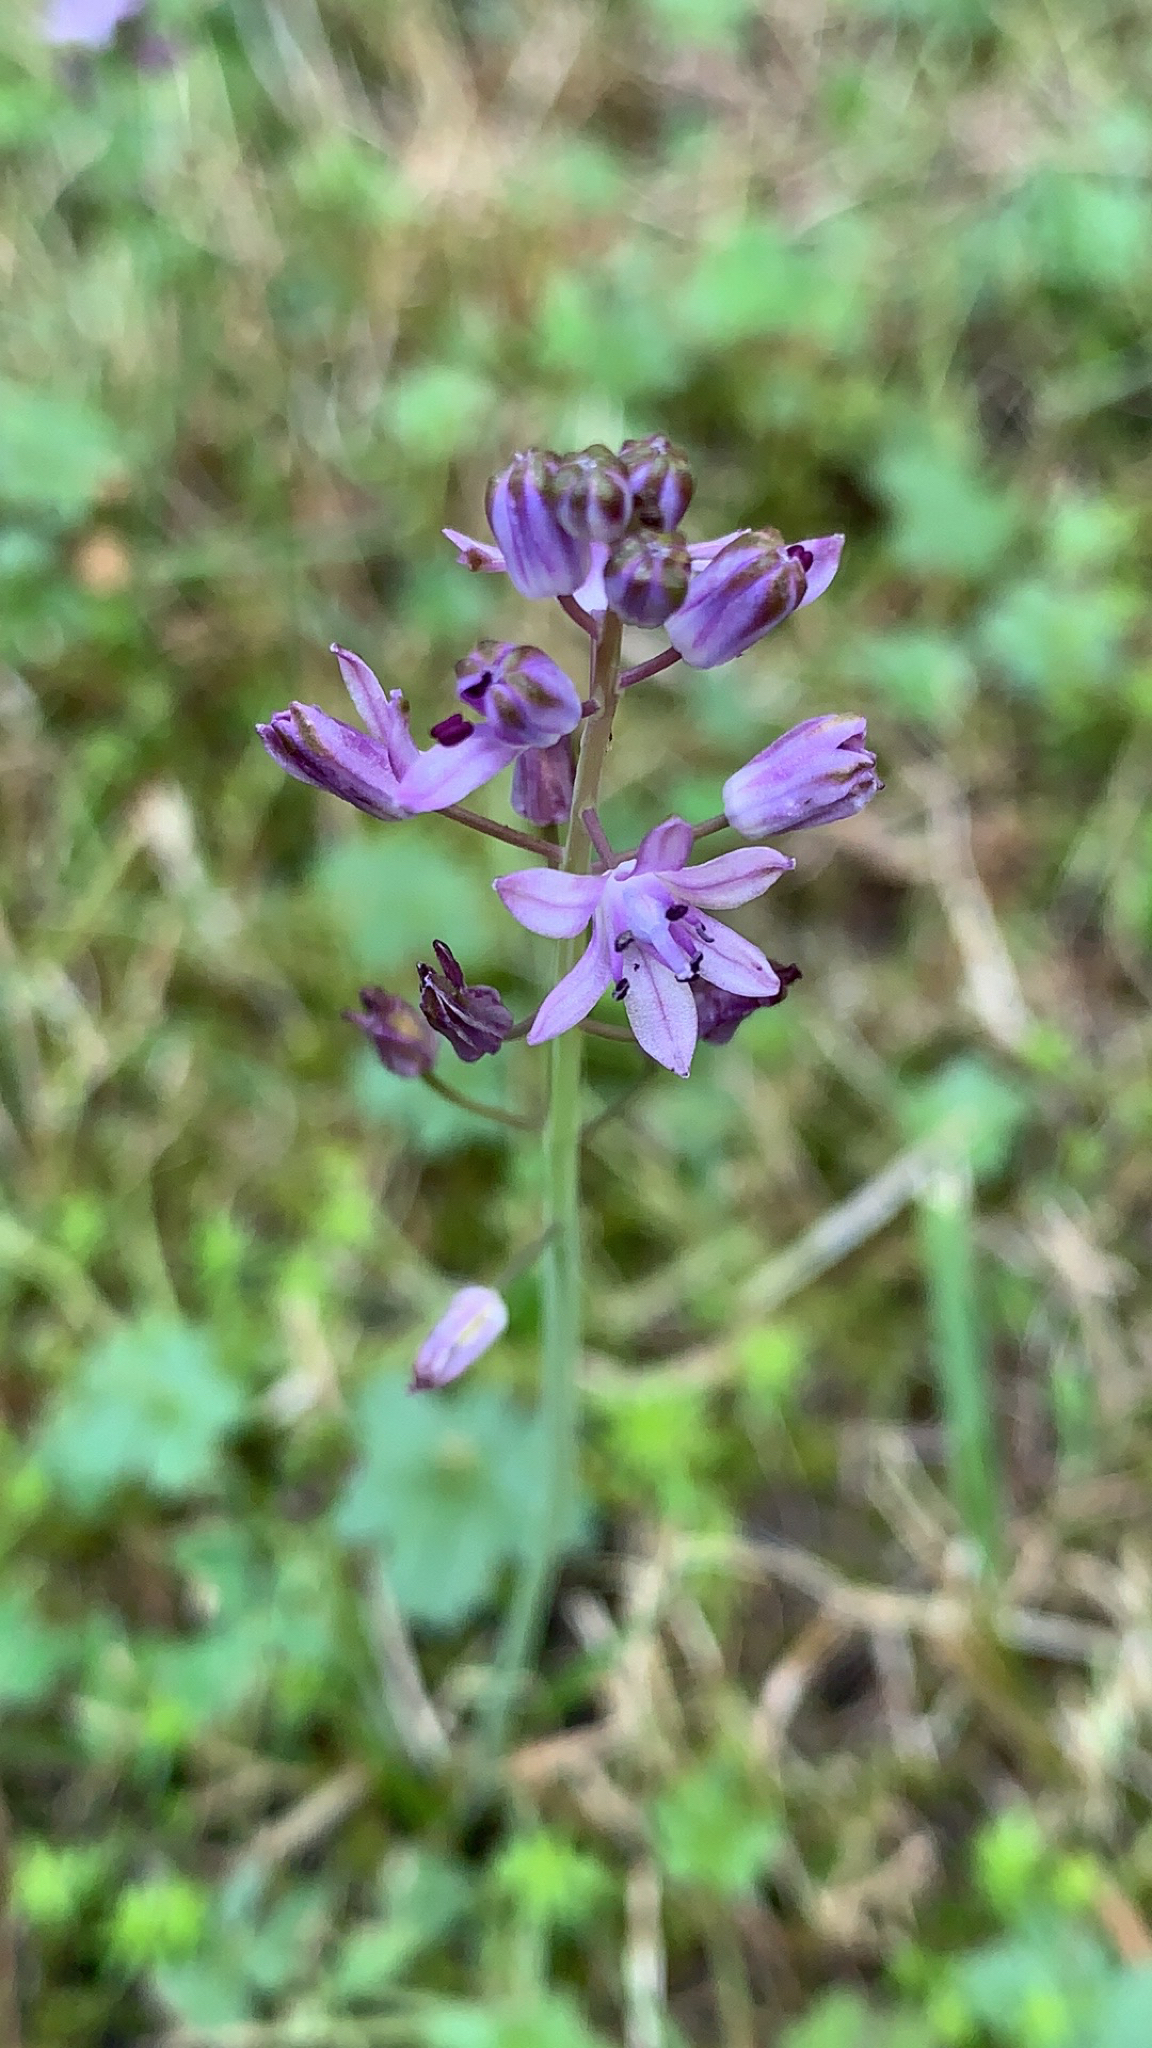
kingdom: Plantae
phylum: Tracheophyta
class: Liliopsida
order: Asparagales
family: Asparagaceae
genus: Prospero
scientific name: Prospero autumnale
